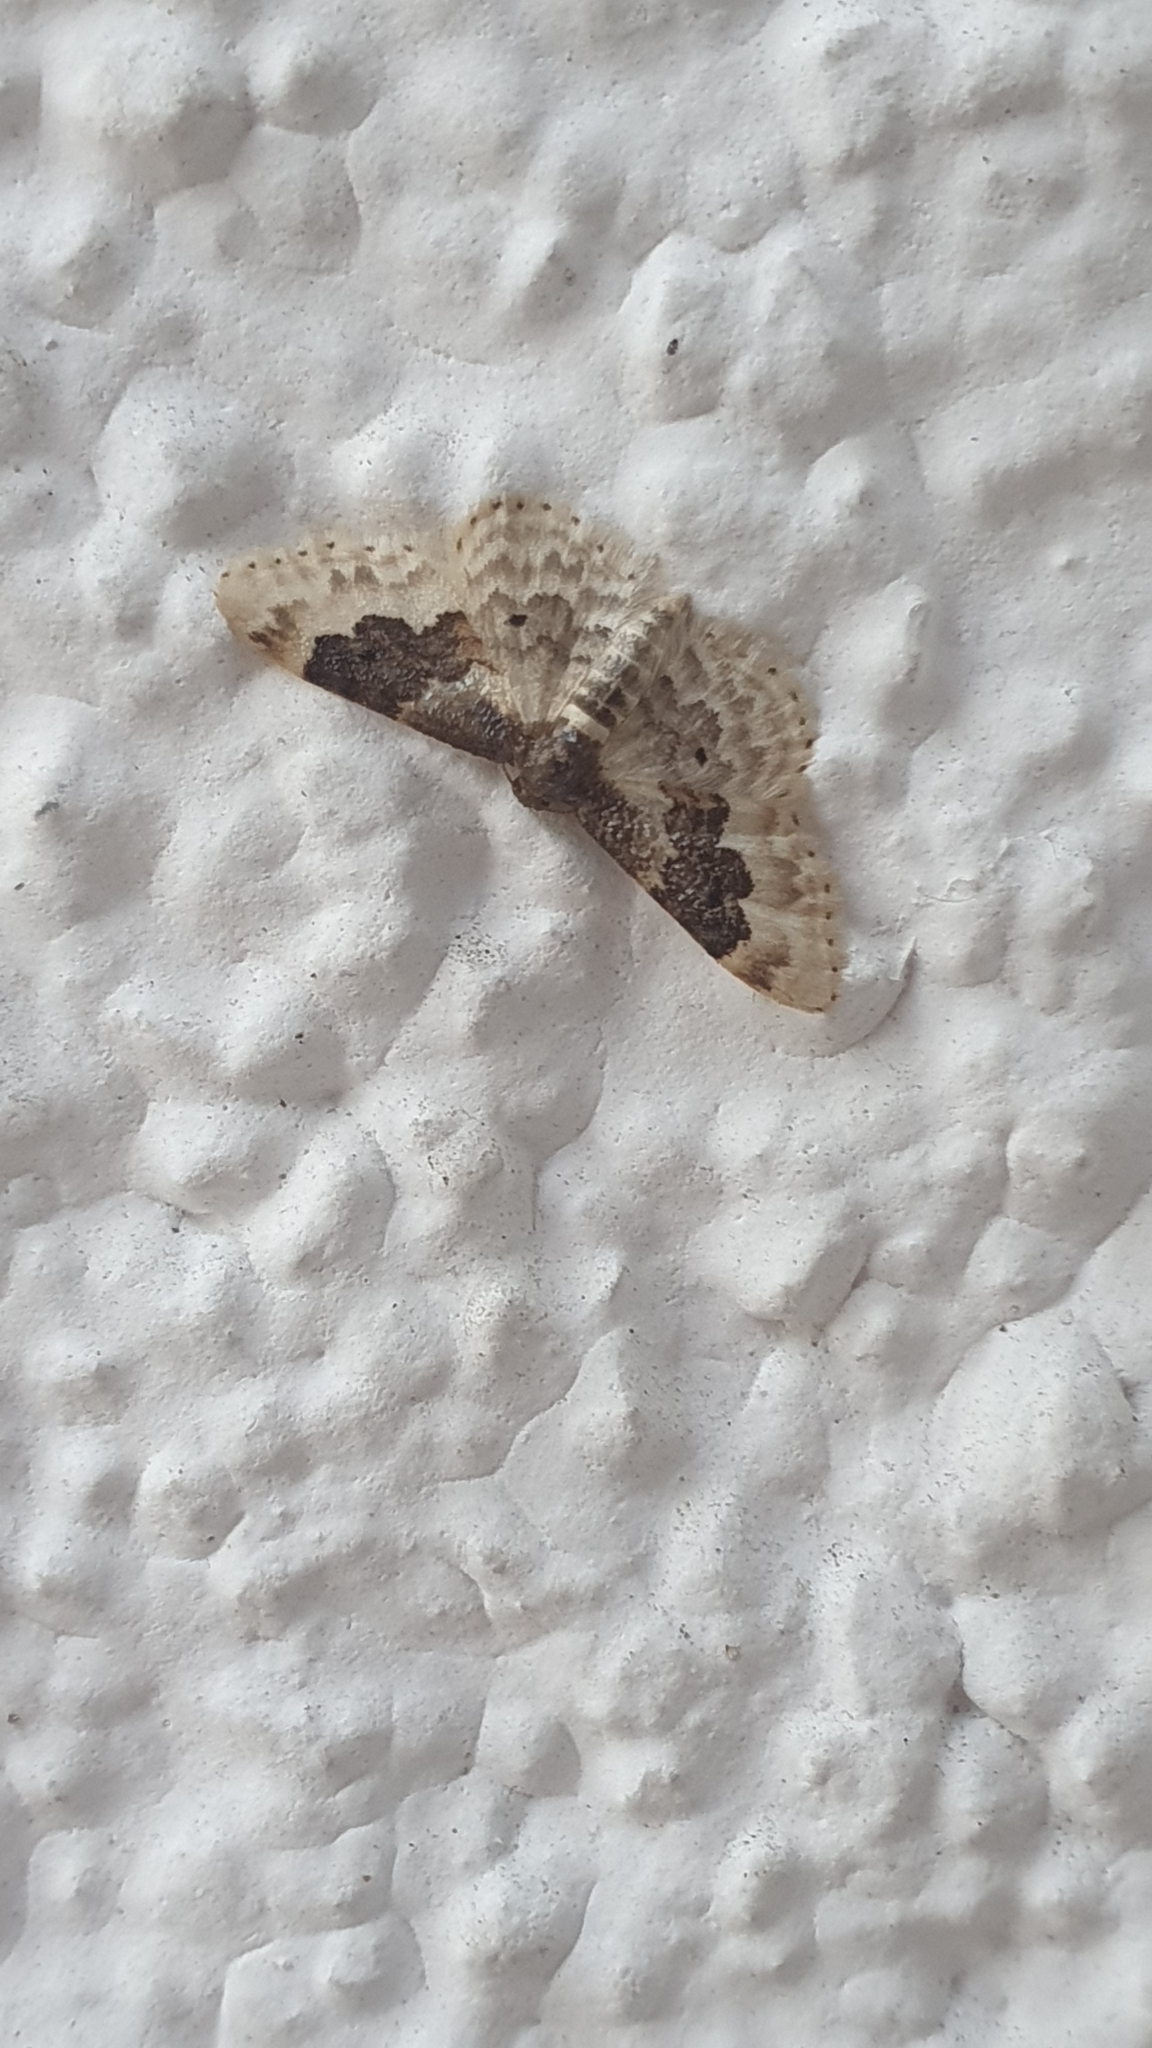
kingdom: Animalia
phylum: Arthropoda
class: Insecta
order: Lepidoptera
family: Geometridae
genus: Idaea
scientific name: Idaea rusticata
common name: Least carpet
